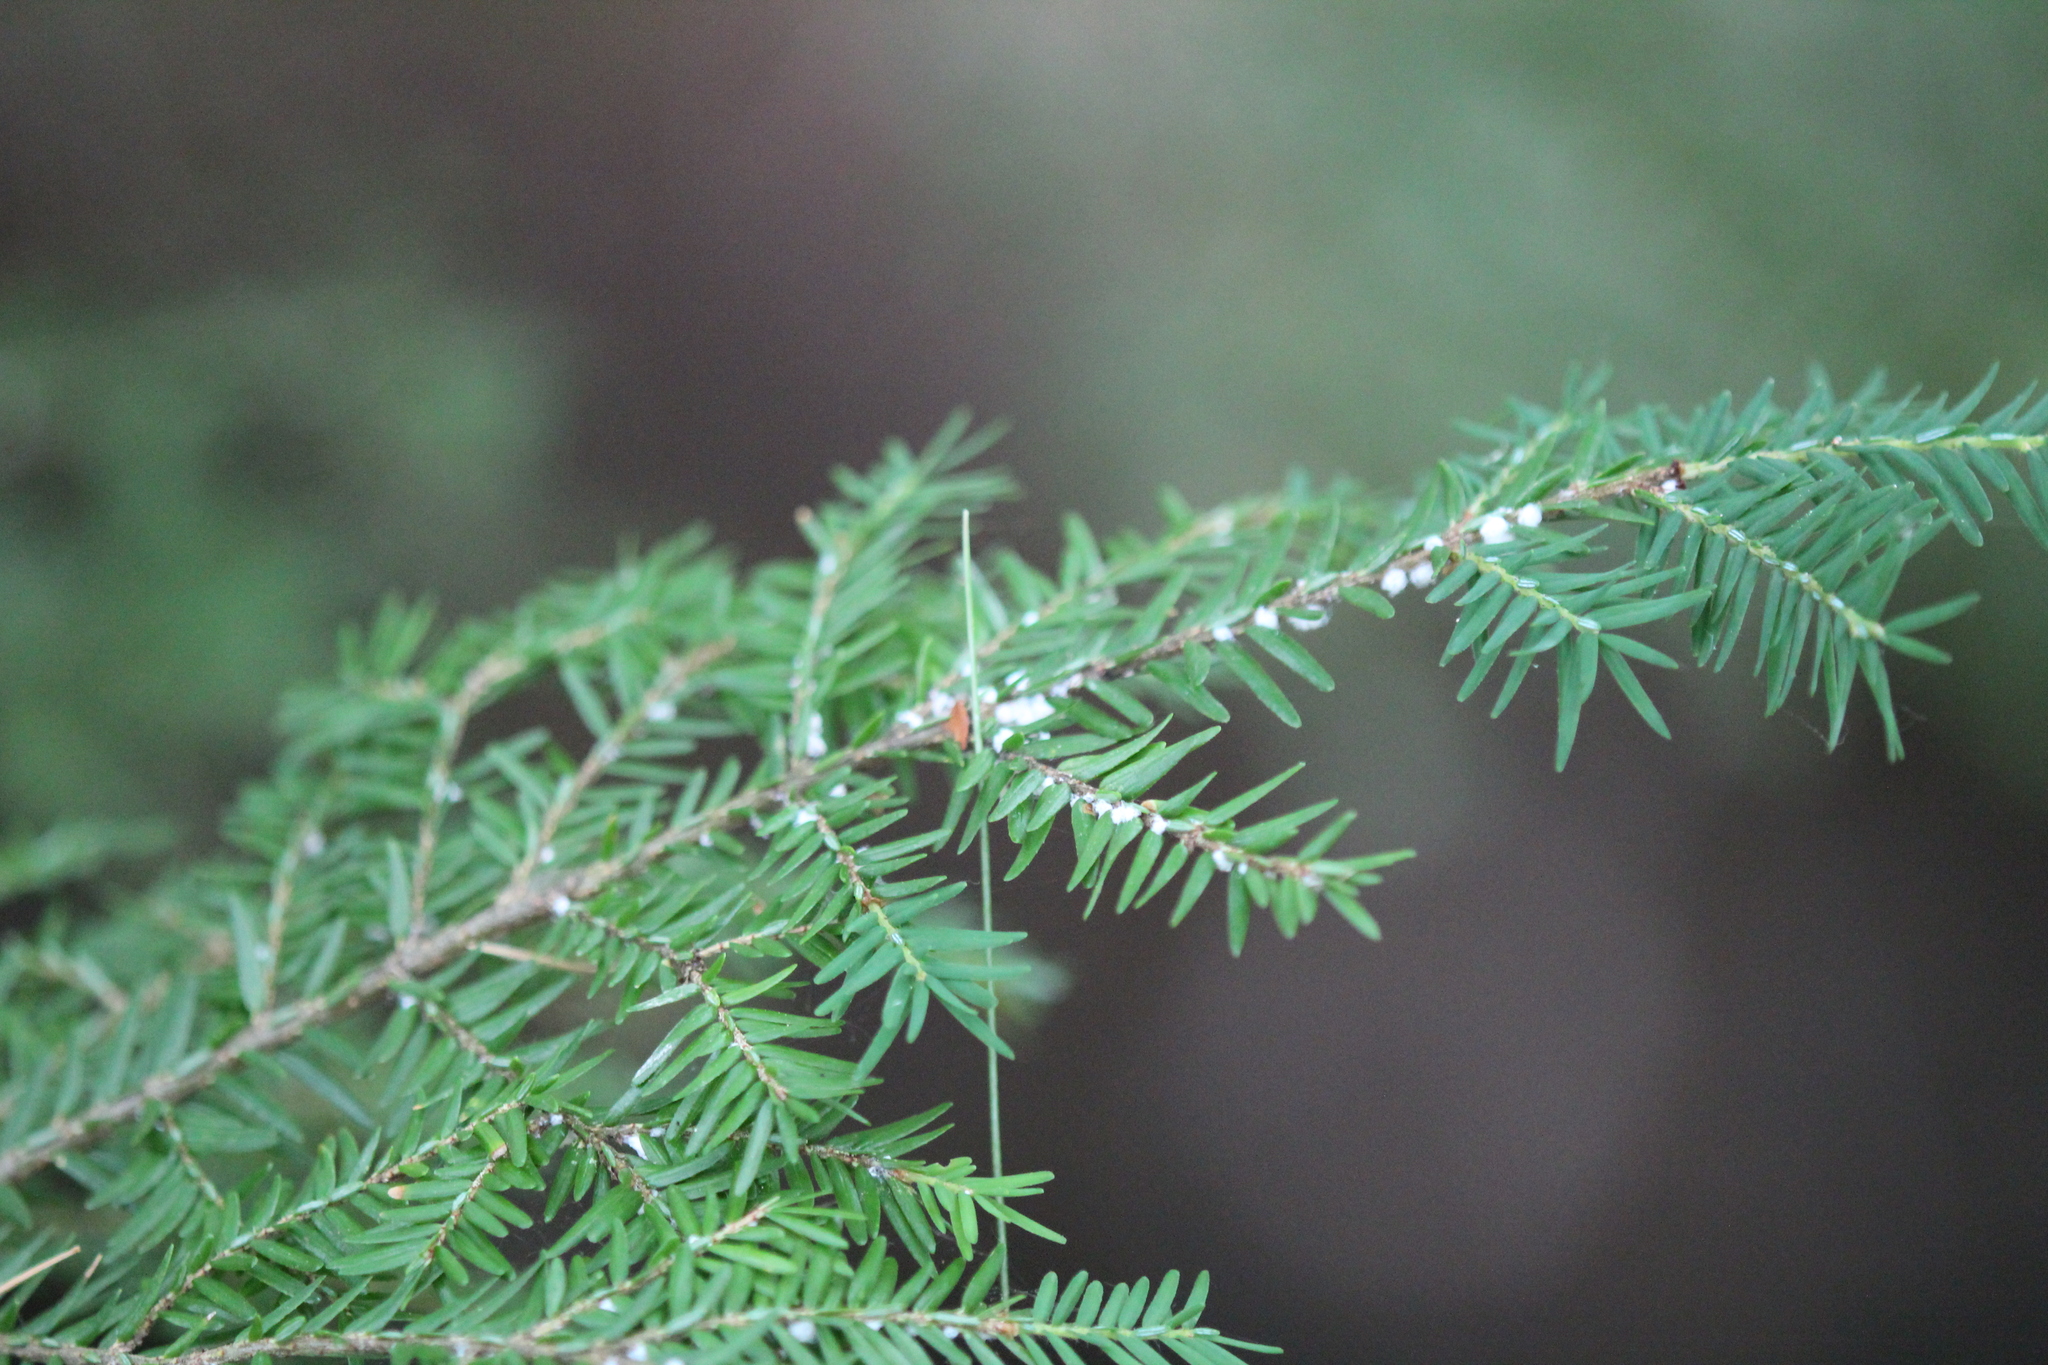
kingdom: Animalia
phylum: Arthropoda
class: Insecta
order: Hemiptera
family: Adelgidae
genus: Adelges
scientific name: Adelges tsugae
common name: Hemlock woolly adelgid
